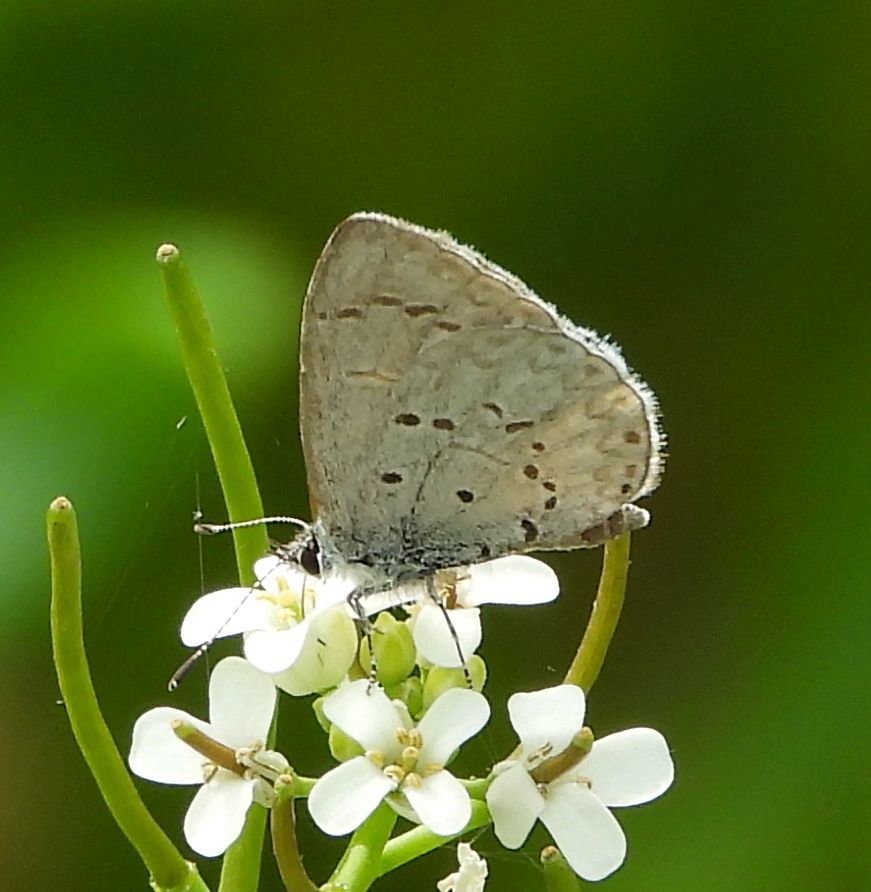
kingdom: Animalia
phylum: Arthropoda
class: Insecta
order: Lepidoptera
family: Lycaenidae
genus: Celastrina
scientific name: Celastrina lucia
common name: Lucia azure
